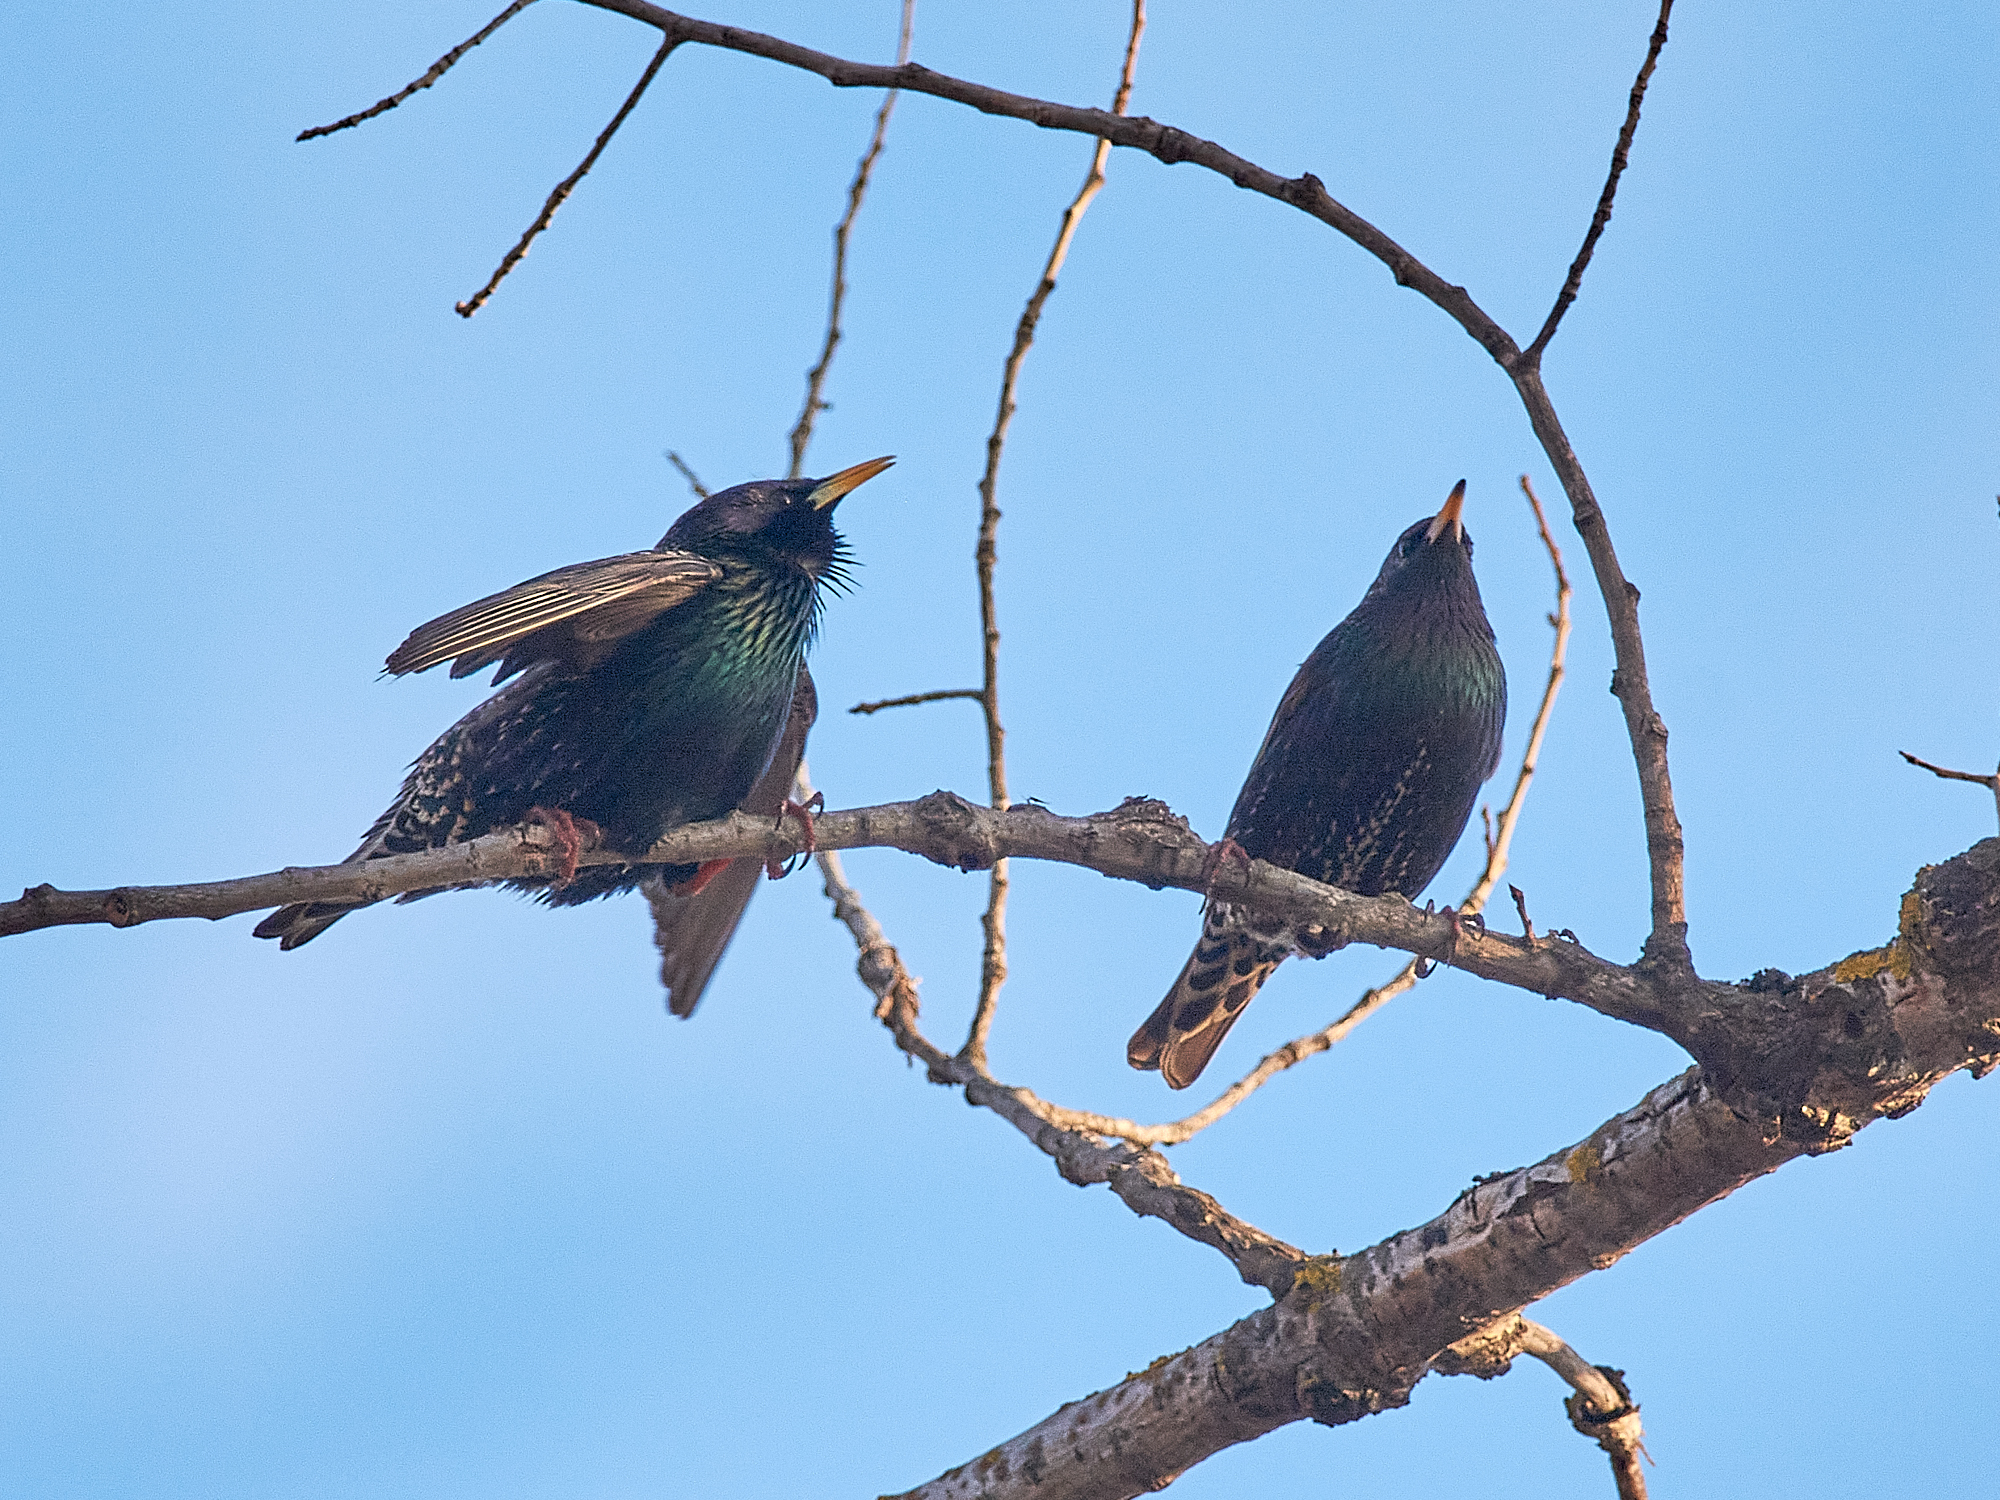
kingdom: Animalia
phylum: Chordata
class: Aves
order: Passeriformes
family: Sturnidae
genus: Sturnus
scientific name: Sturnus vulgaris
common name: Common starling
